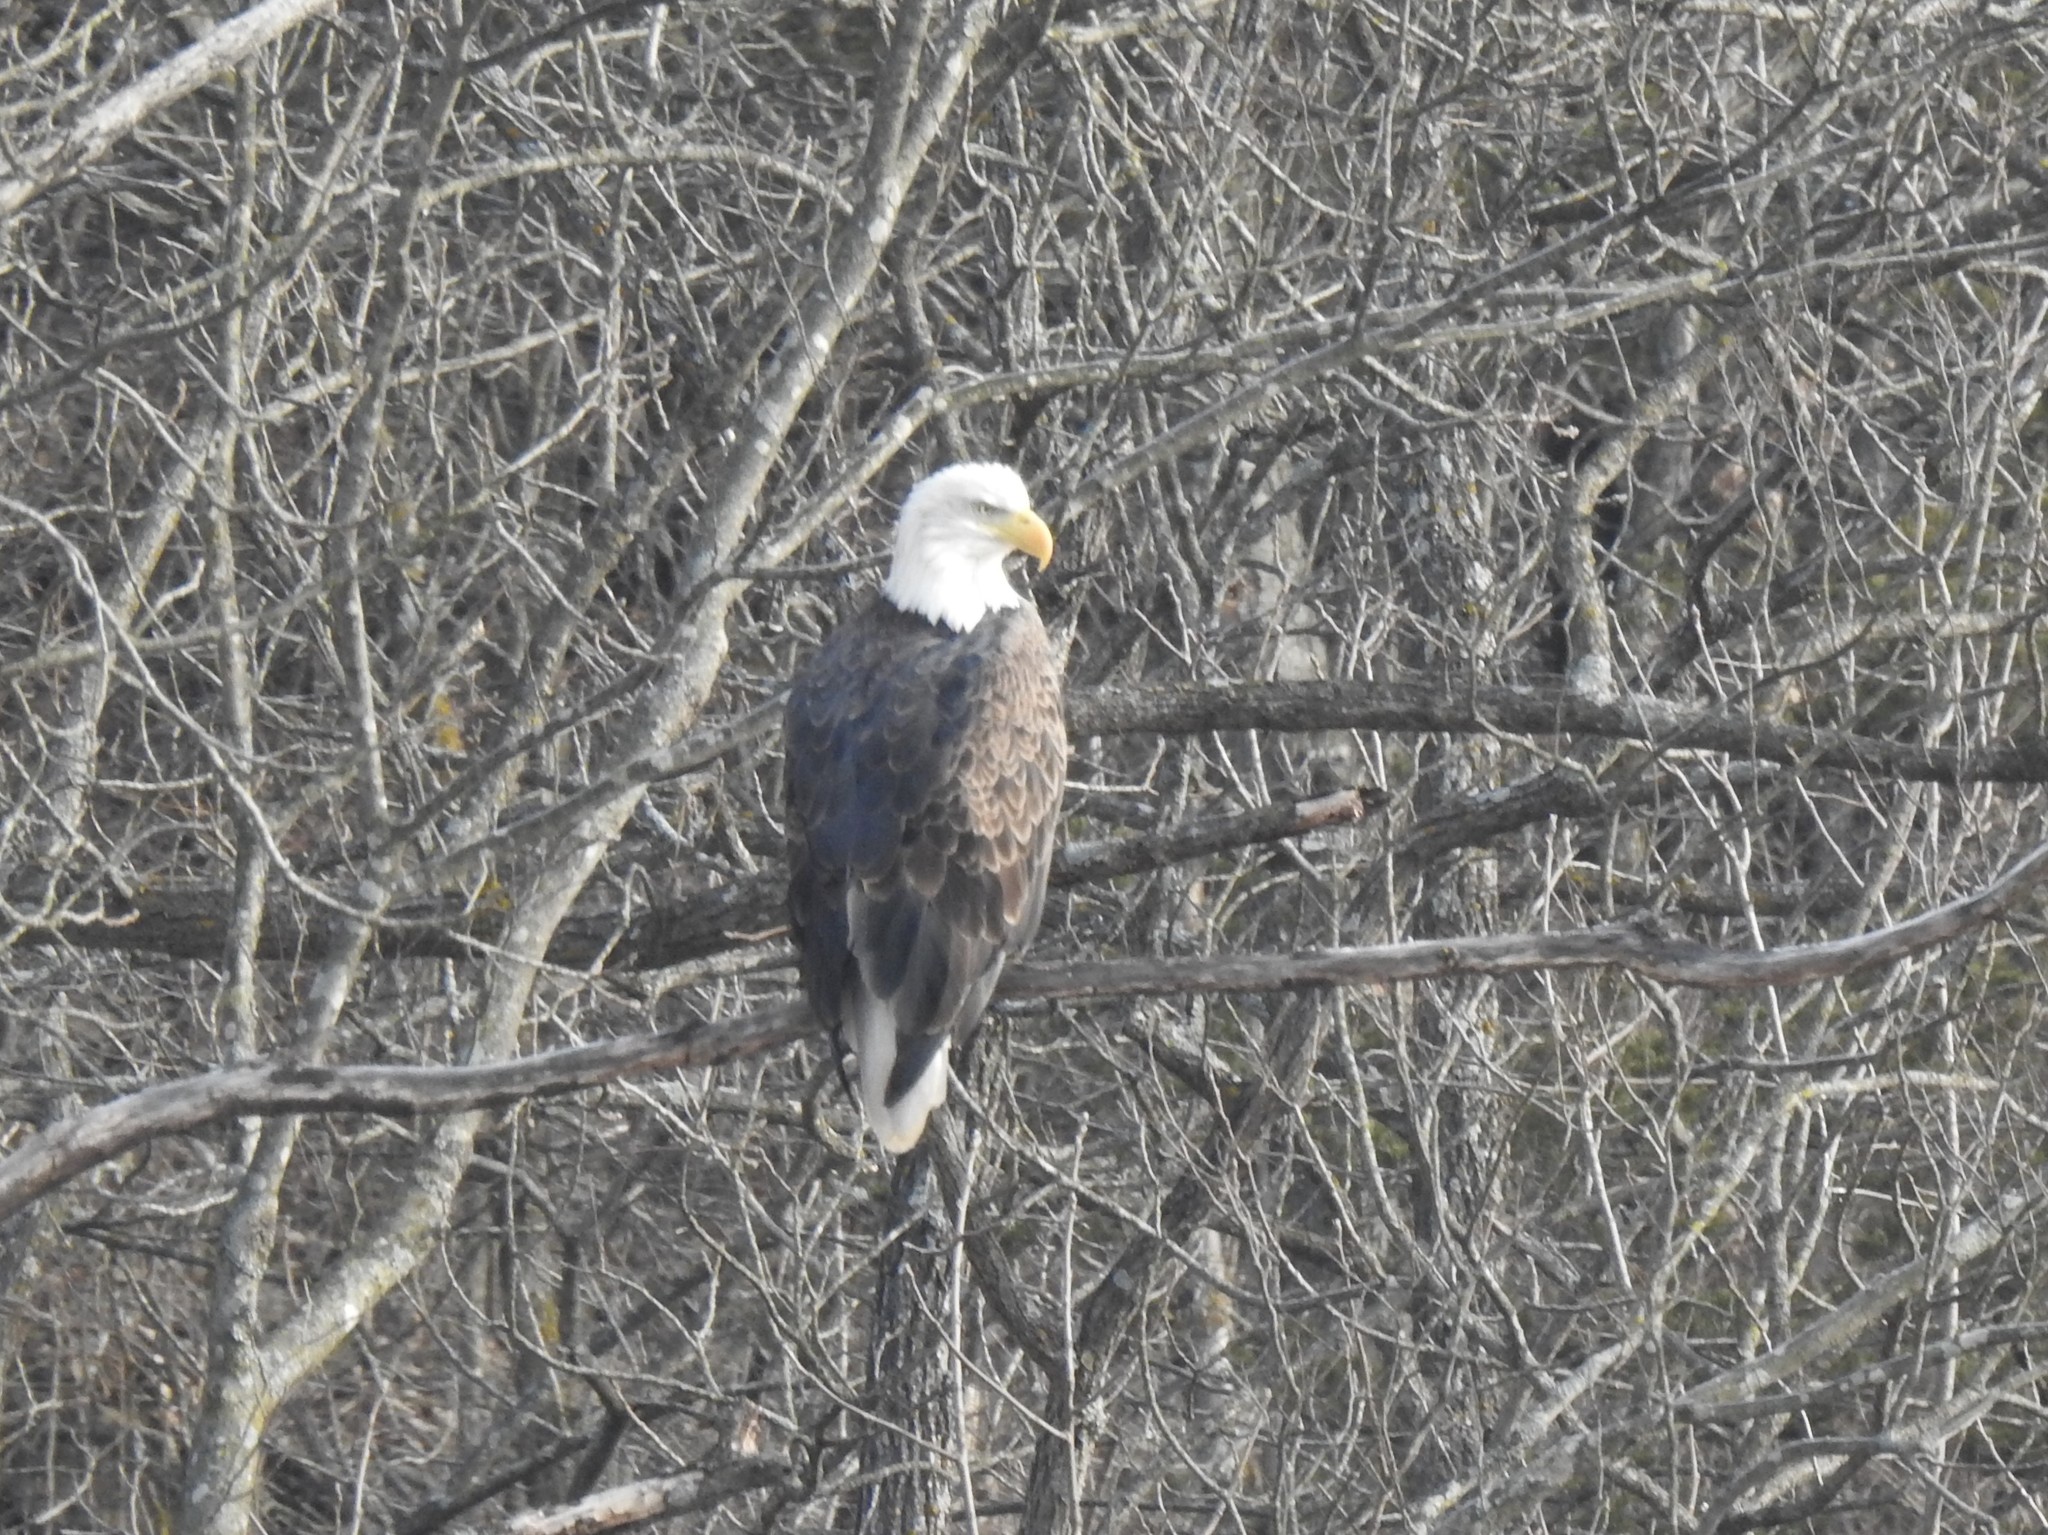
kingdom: Animalia
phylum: Chordata
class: Aves
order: Accipitriformes
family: Accipitridae
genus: Haliaeetus
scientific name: Haliaeetus leucocephalus
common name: Bald eagle
